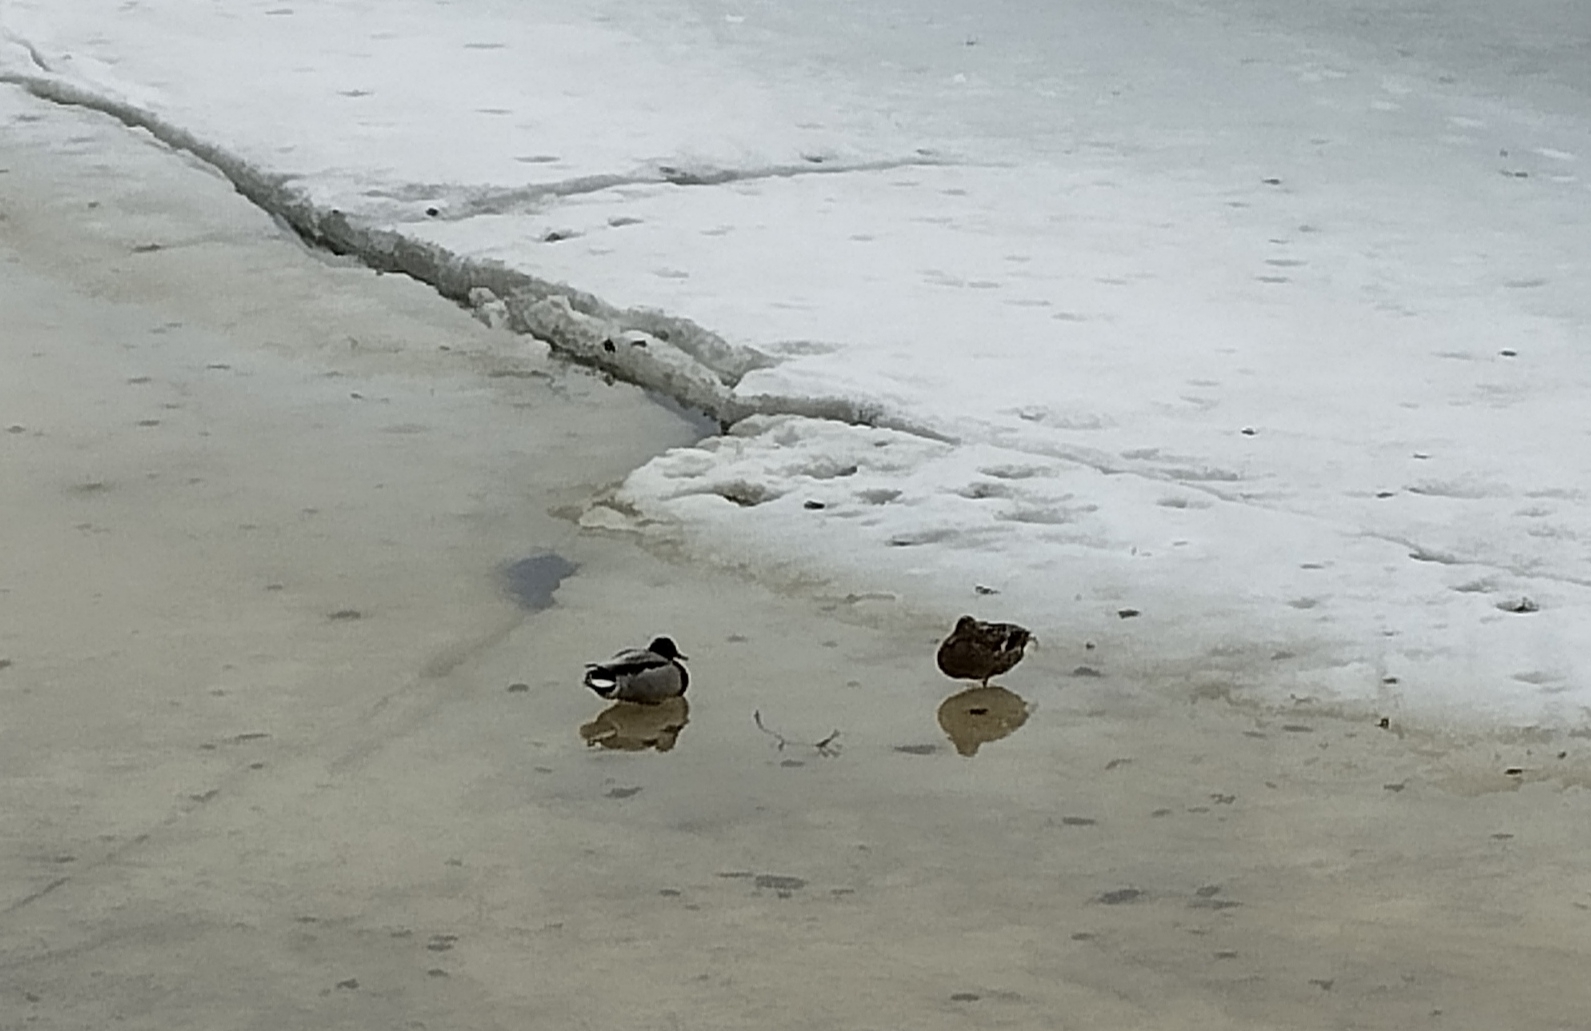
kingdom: Animalia
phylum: Chordata
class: Aves
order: Anseriformes
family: Anatidae
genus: Anas
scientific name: Anas platyrhynchos
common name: Mallard
